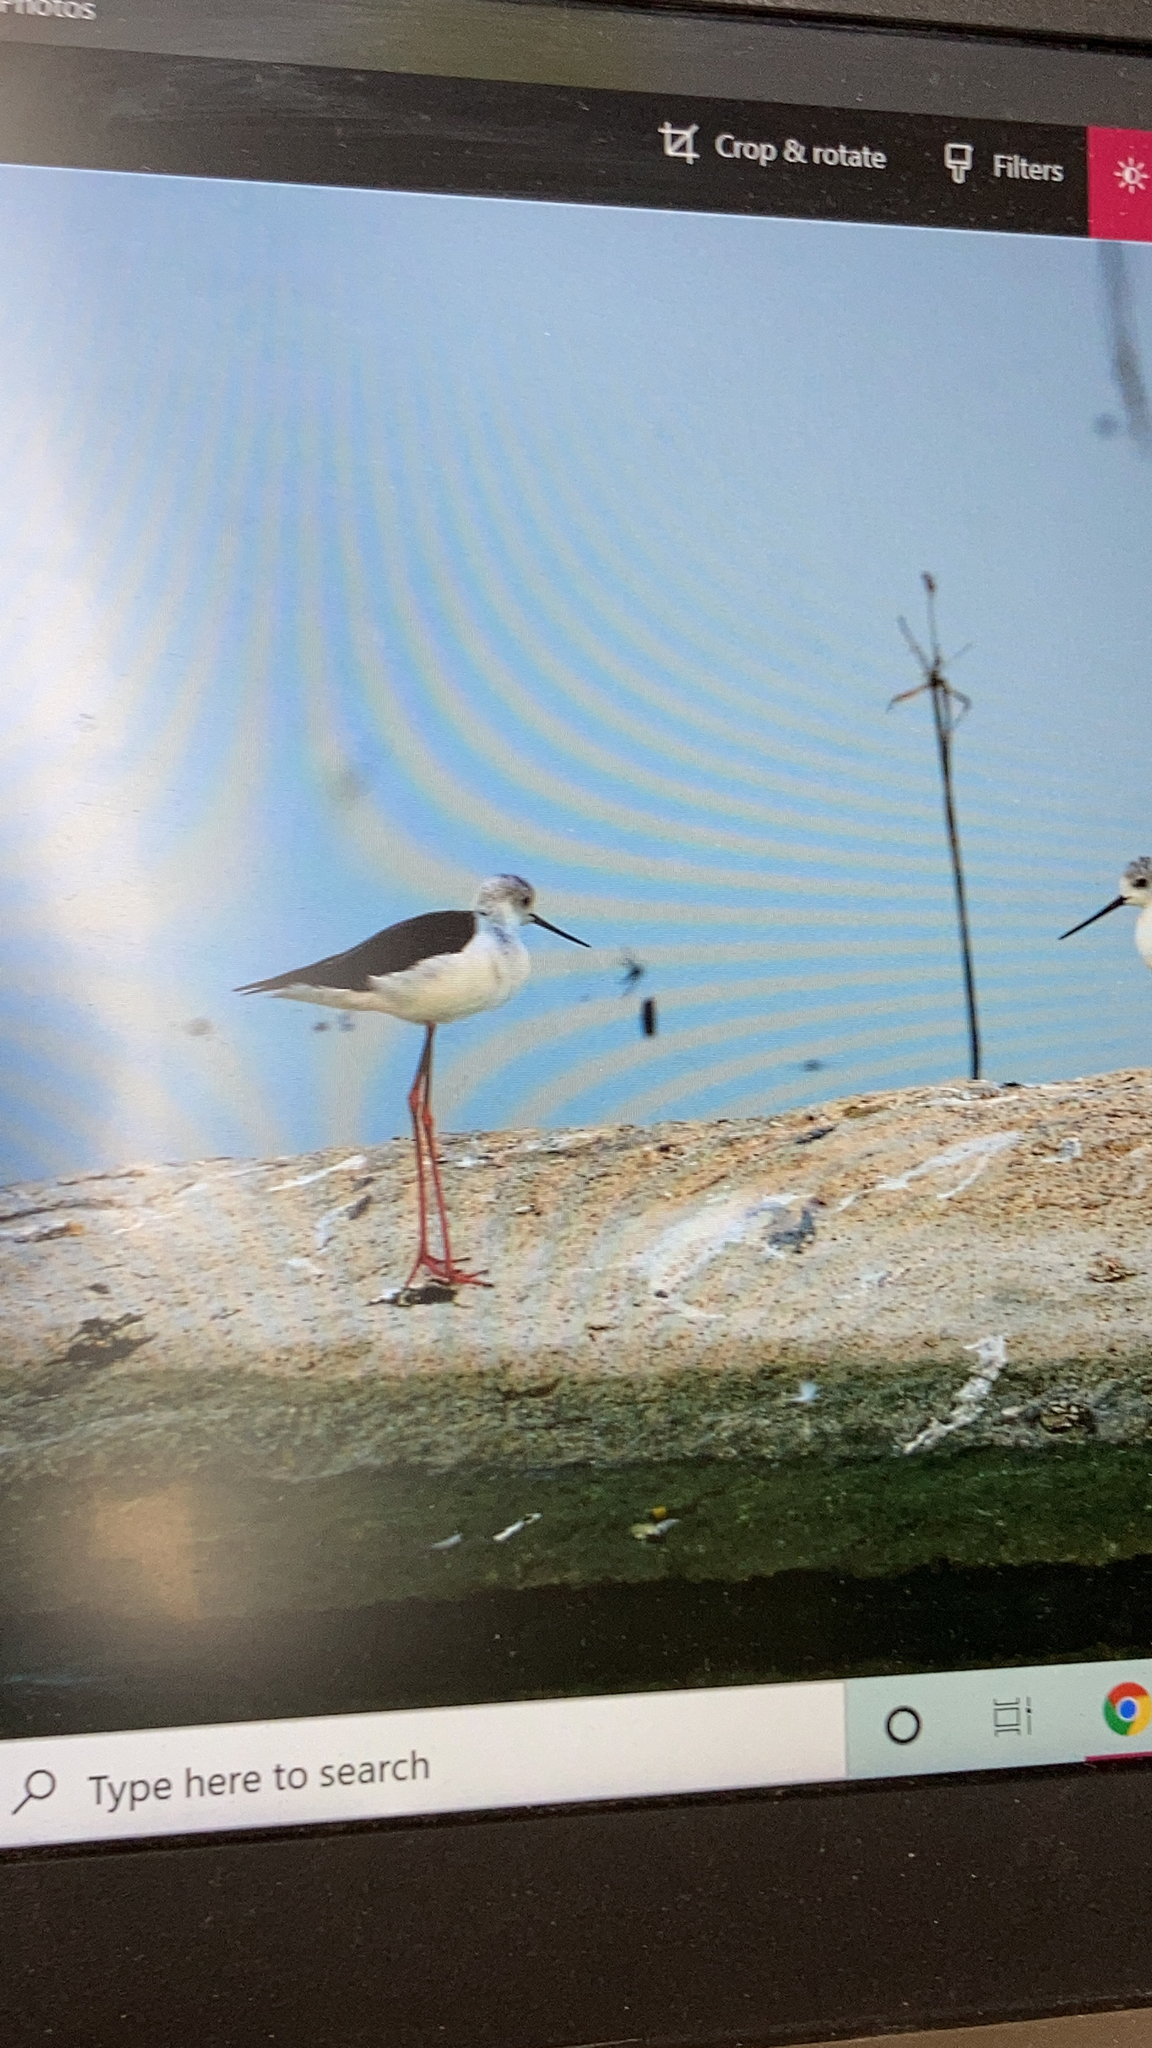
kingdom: Animalia
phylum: Chordata
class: Aves
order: Charadriiformes
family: Recurvirostridae
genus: Himantopus
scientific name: Himantopus himantopus
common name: Black-winged stilt
